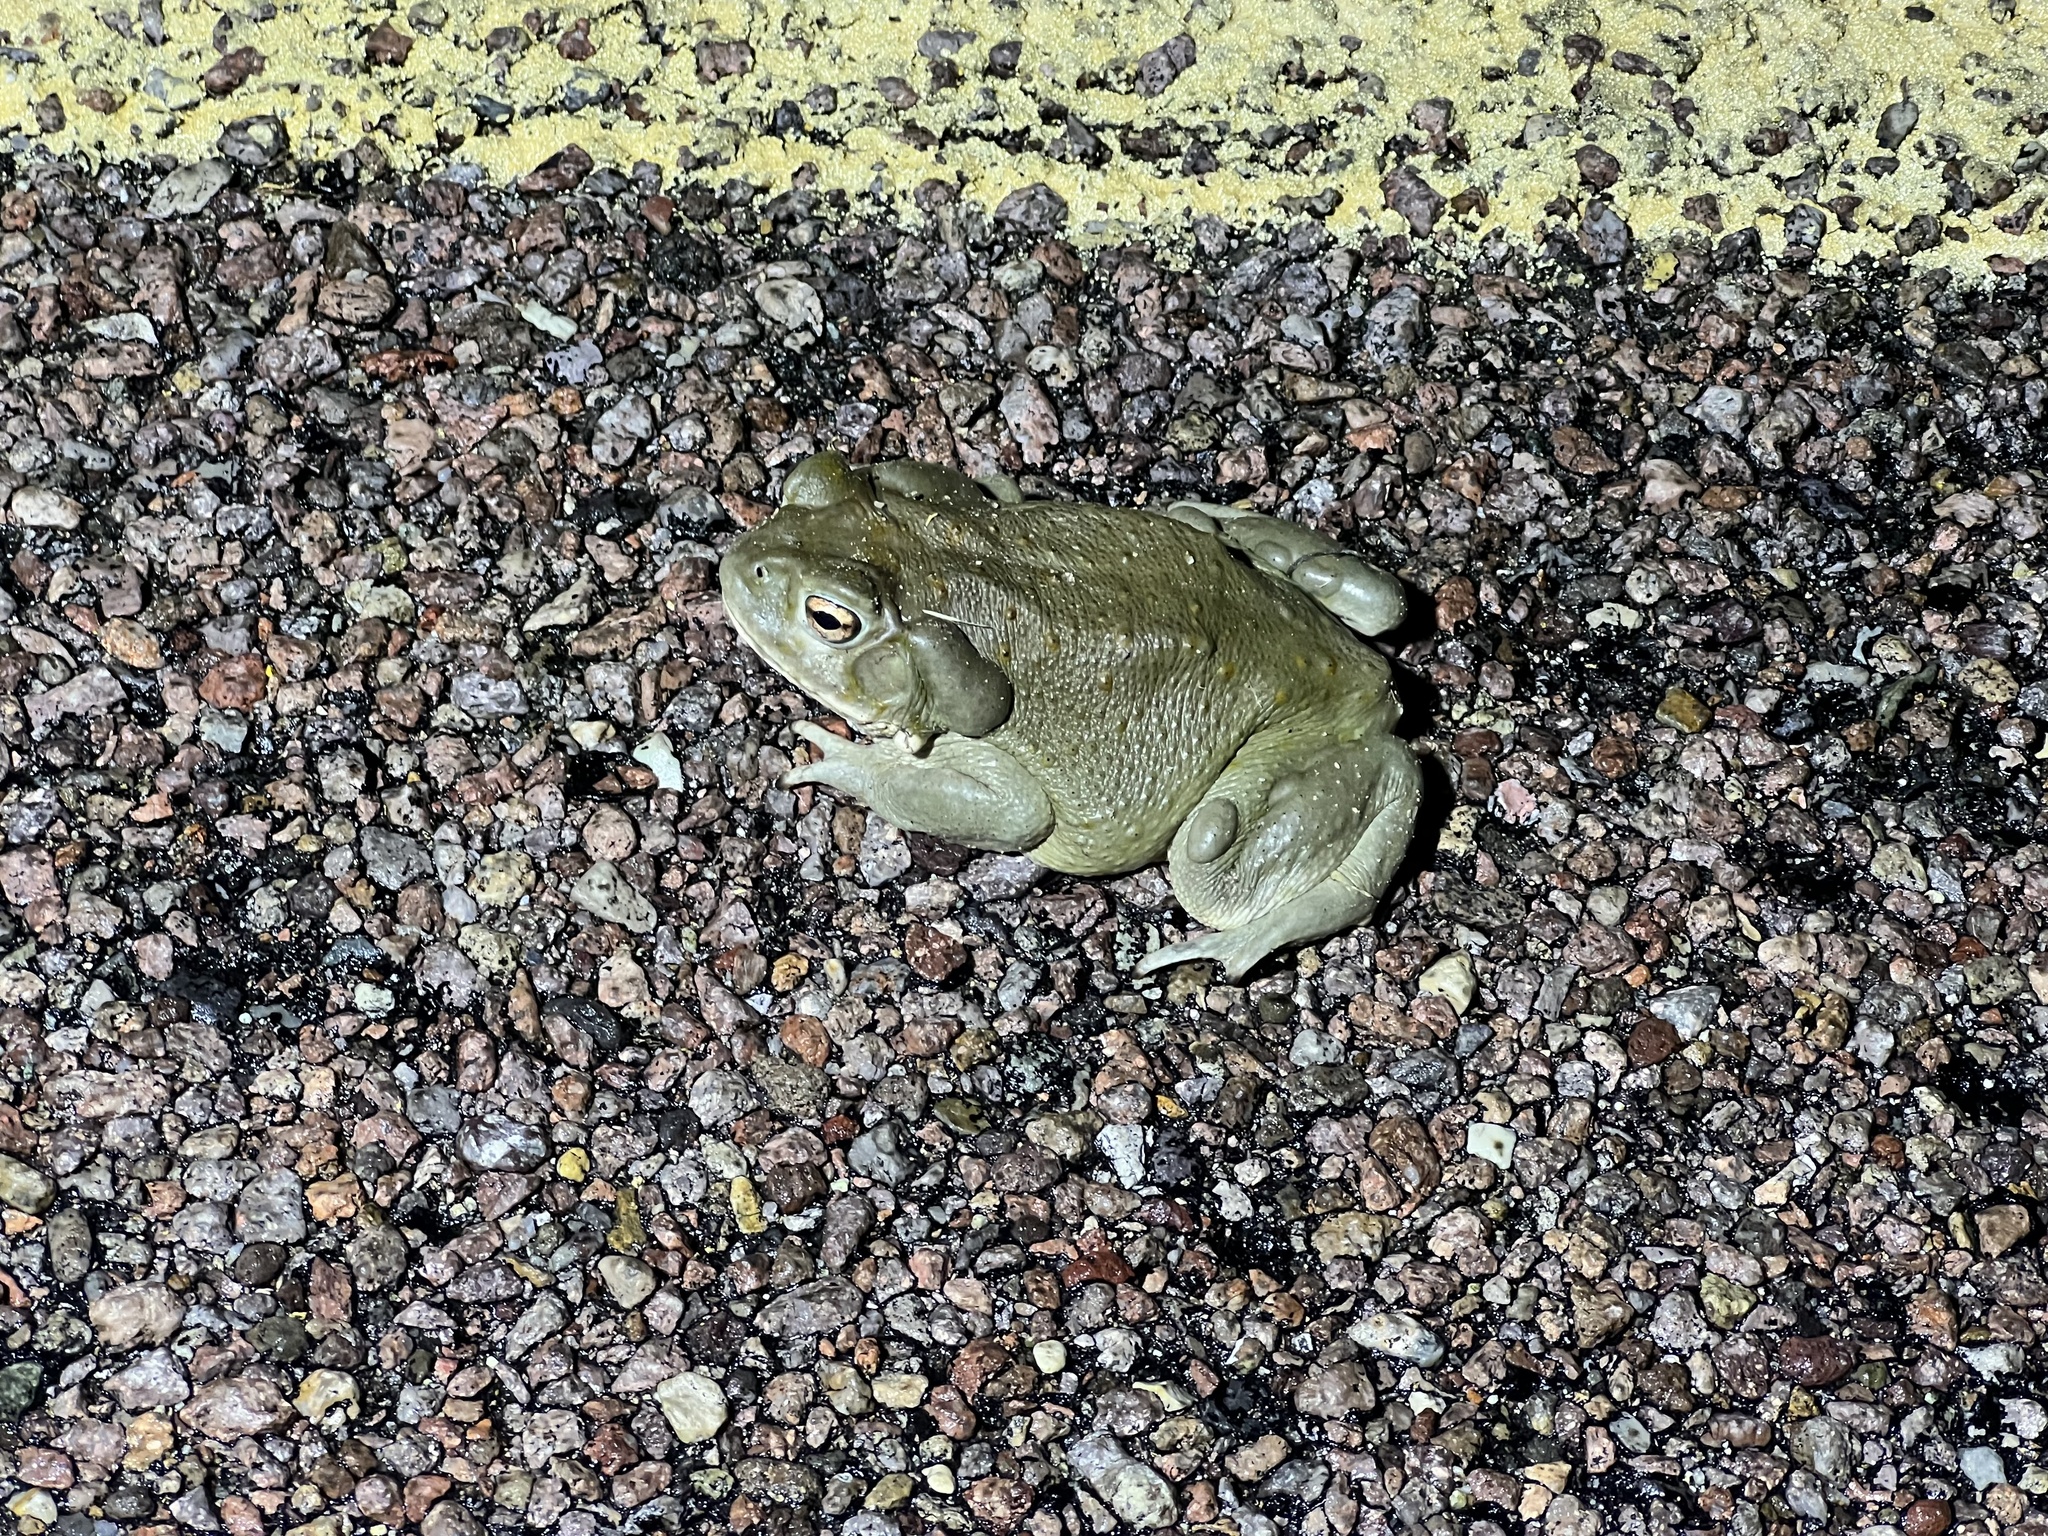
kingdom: Animalia
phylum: Chordata
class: Amphibia
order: Anura
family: Bufonidae
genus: Incilius
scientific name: Incilius alvarius
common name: Sonoran desert toad
